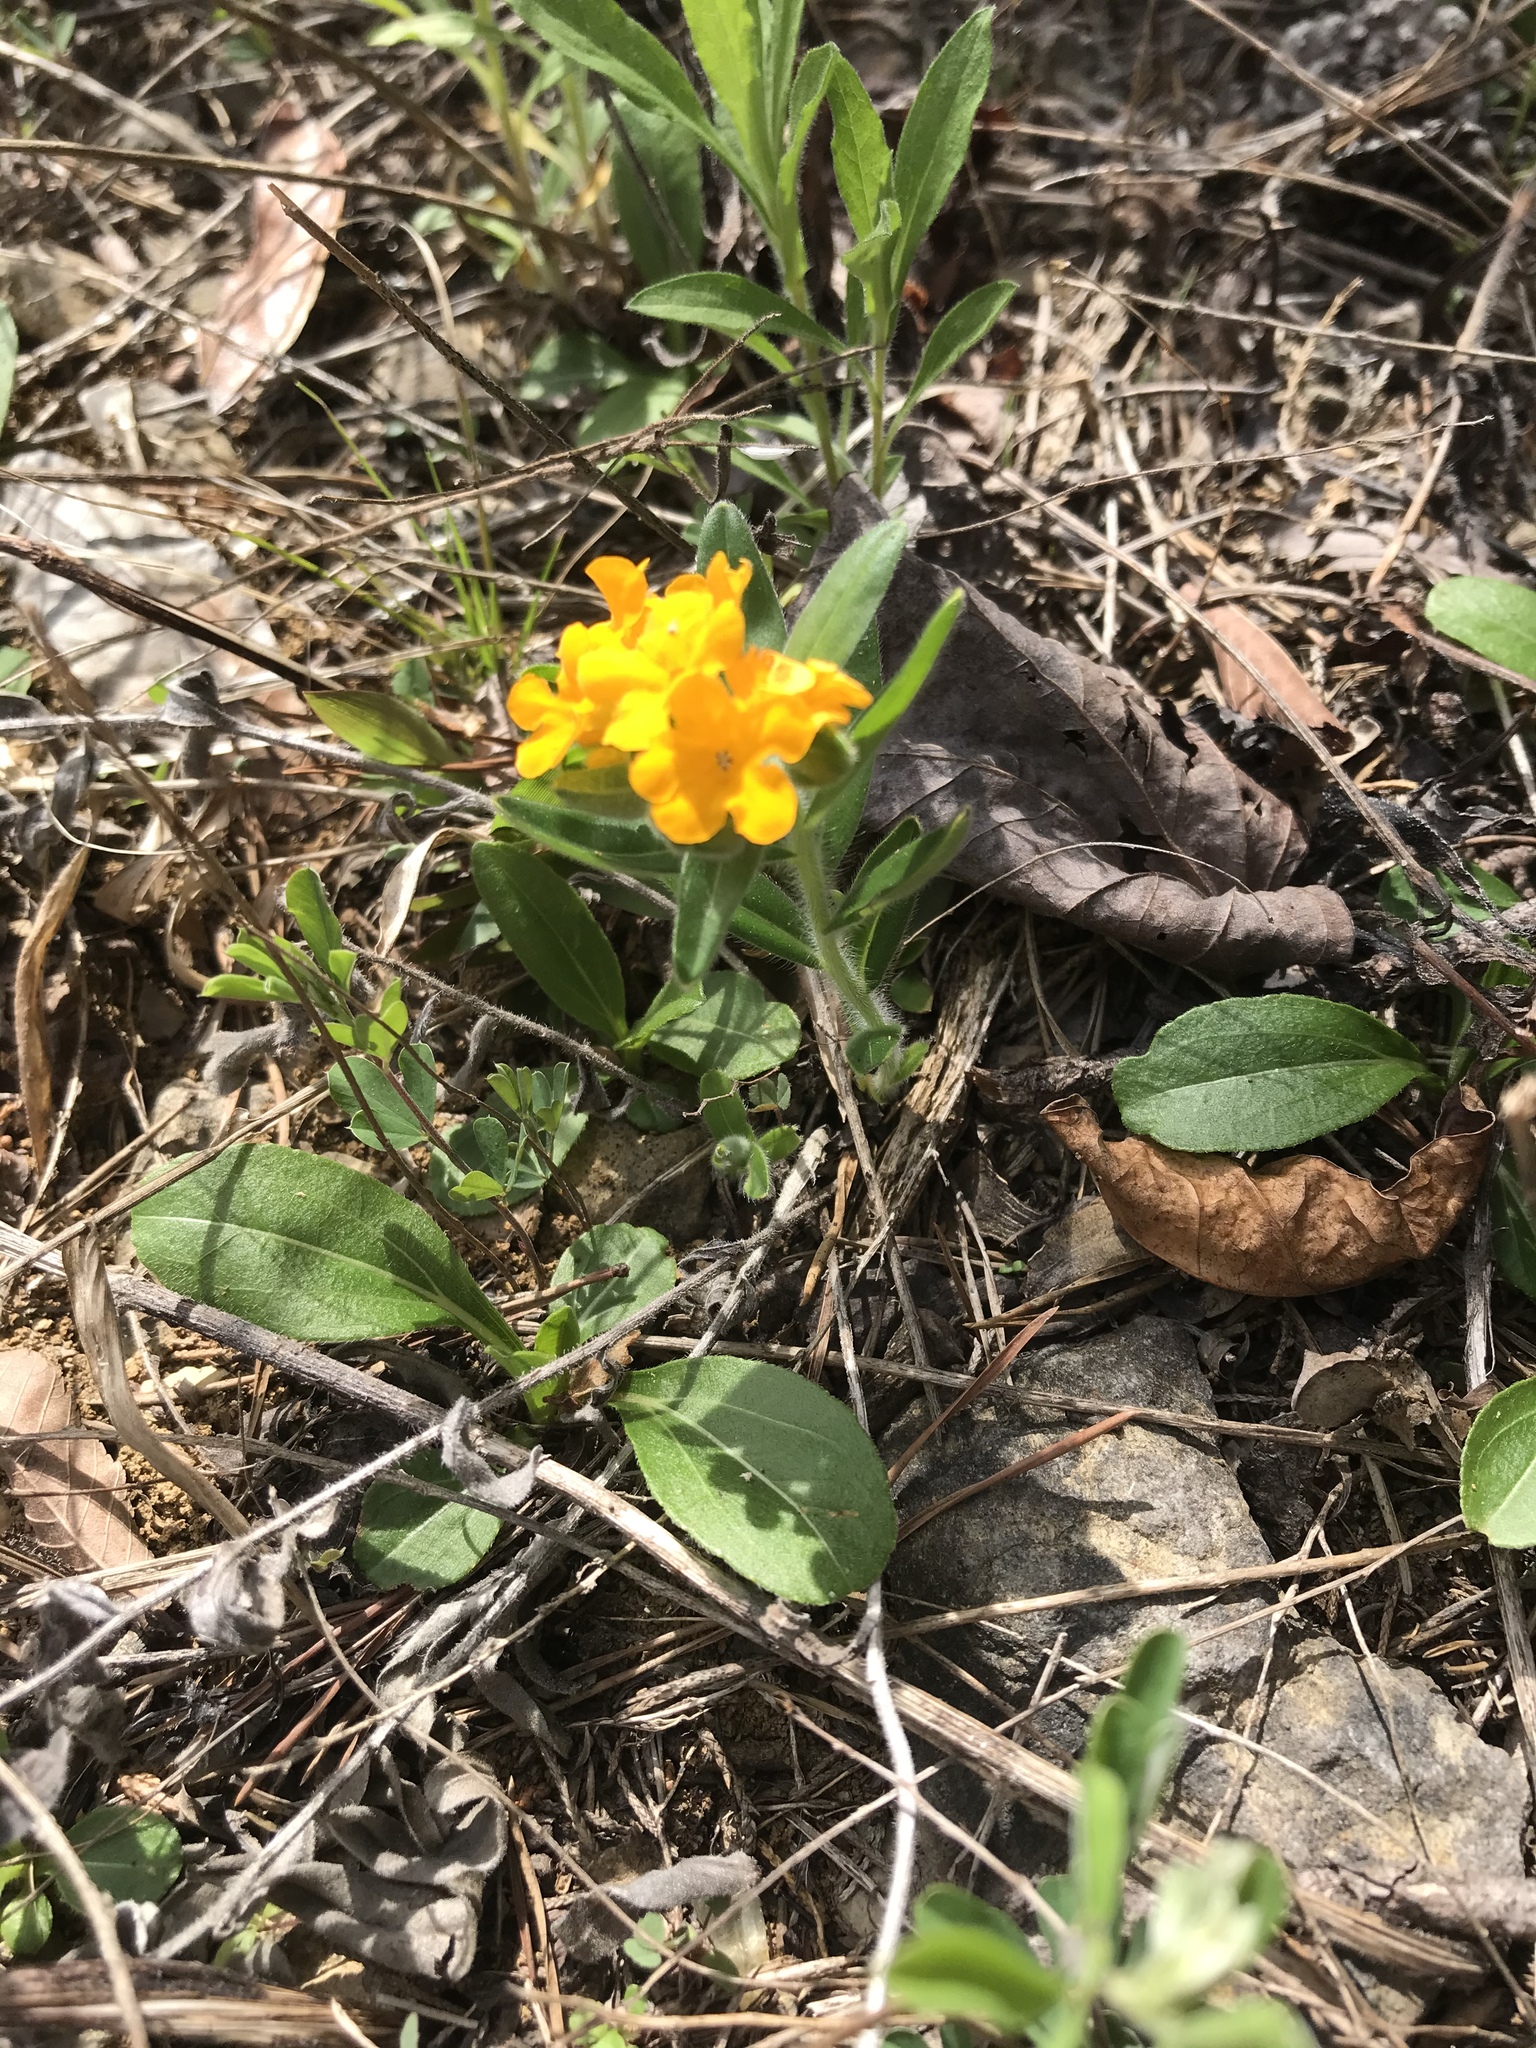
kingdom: Plantae
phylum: Tracheophyta
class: Magnoliopsida
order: Boraginales
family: Boraginaceae
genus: Lithospermum
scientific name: Lithospermum canescens
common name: Hoary puccoon
